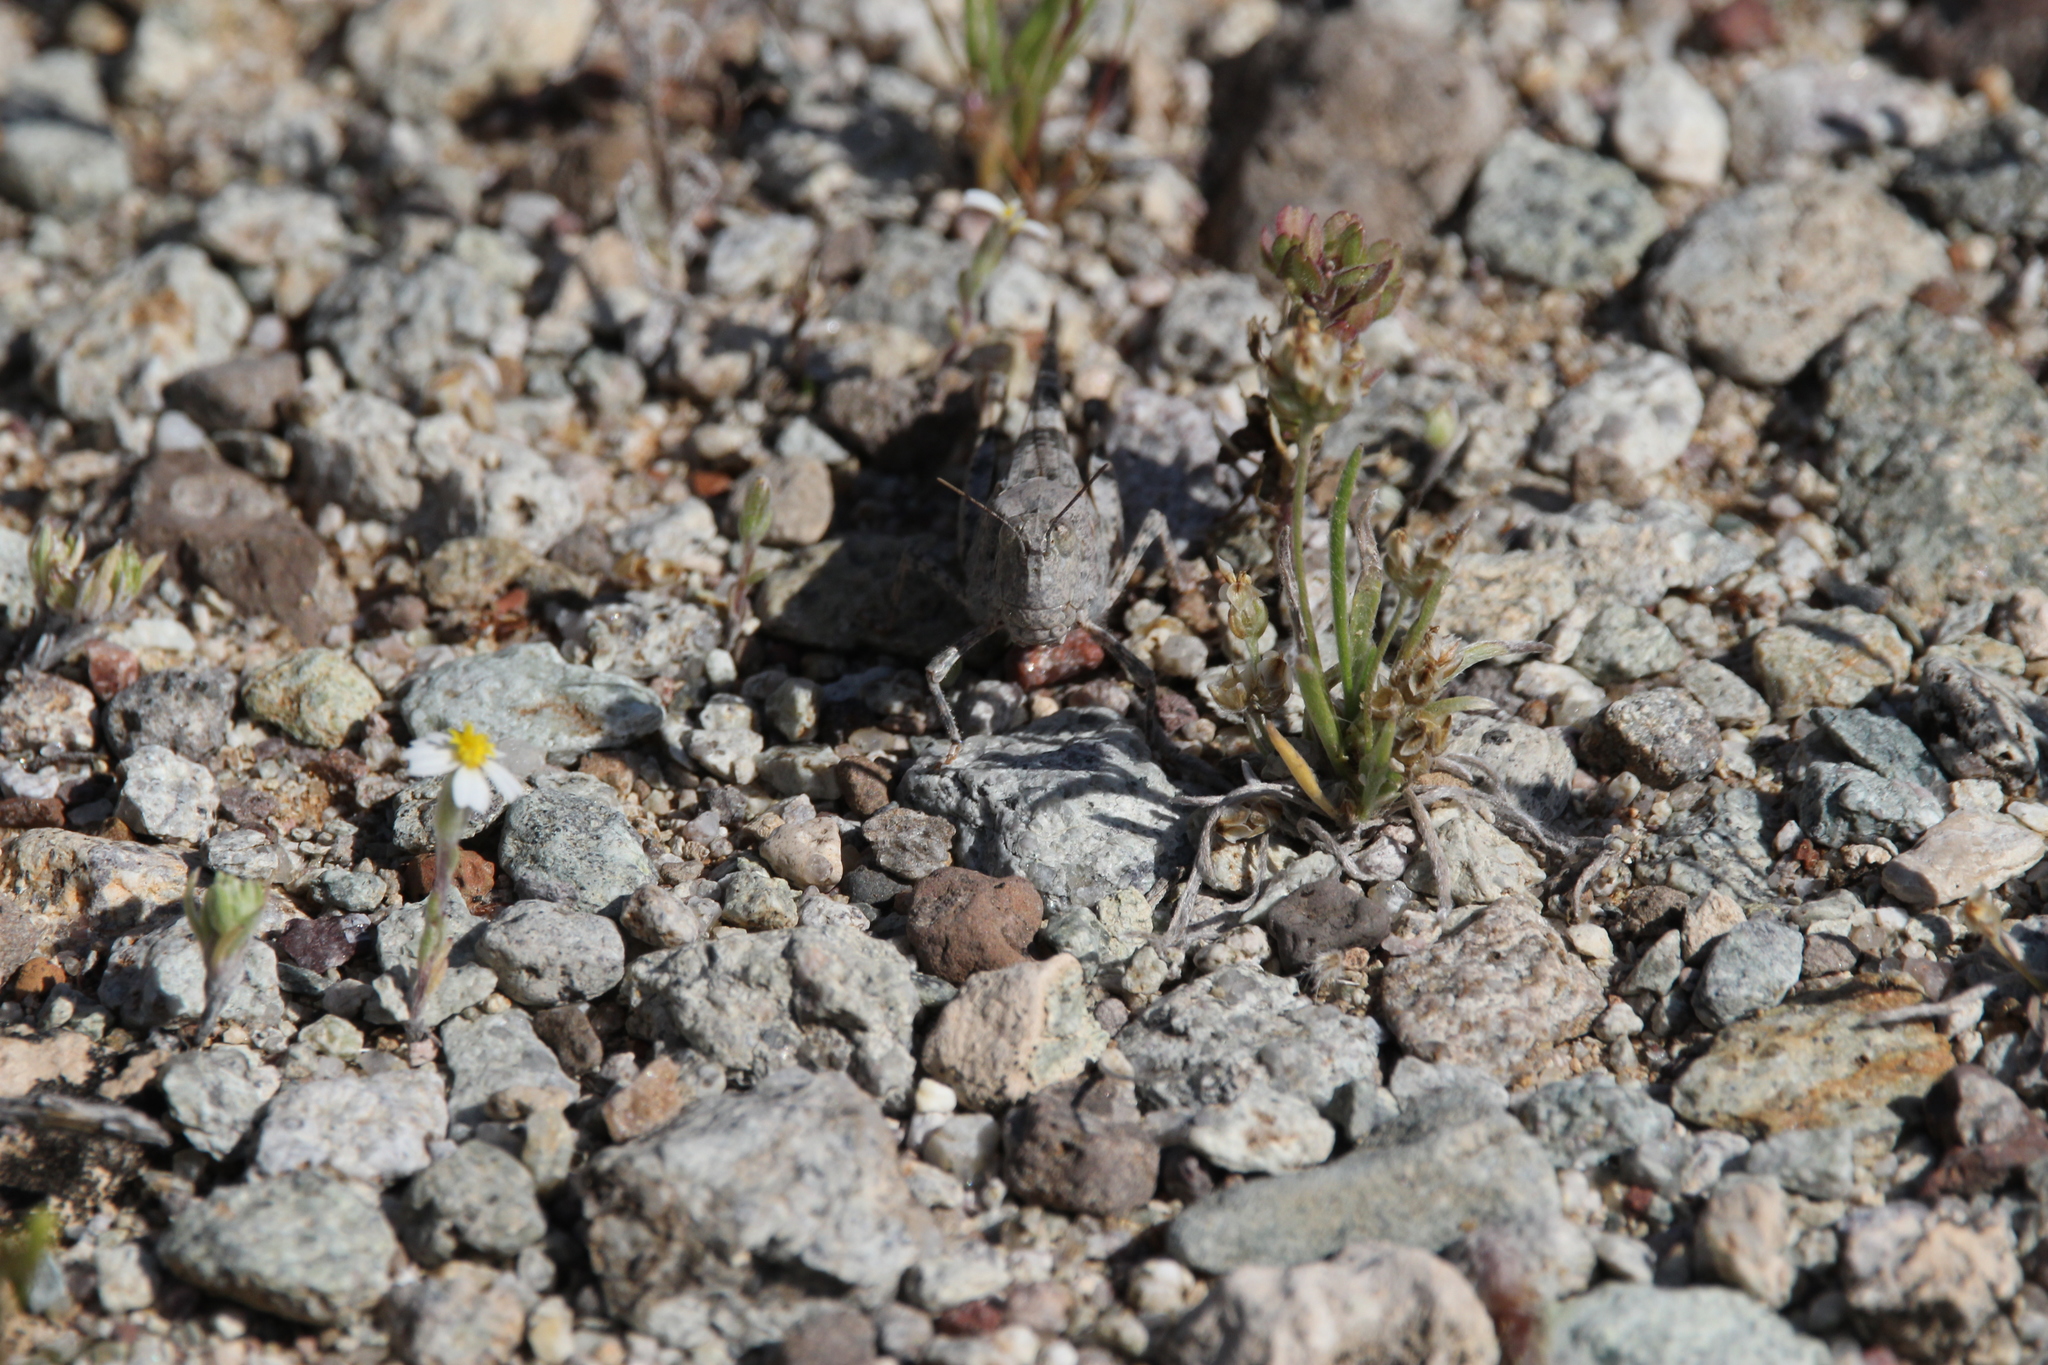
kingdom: Animalia
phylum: Arthropoda
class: Insecta
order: Orthoptera
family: Acrididae
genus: Trimerotropis
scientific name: Trimerotropis pallidipennis
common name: Pallid-winged grasshopper
